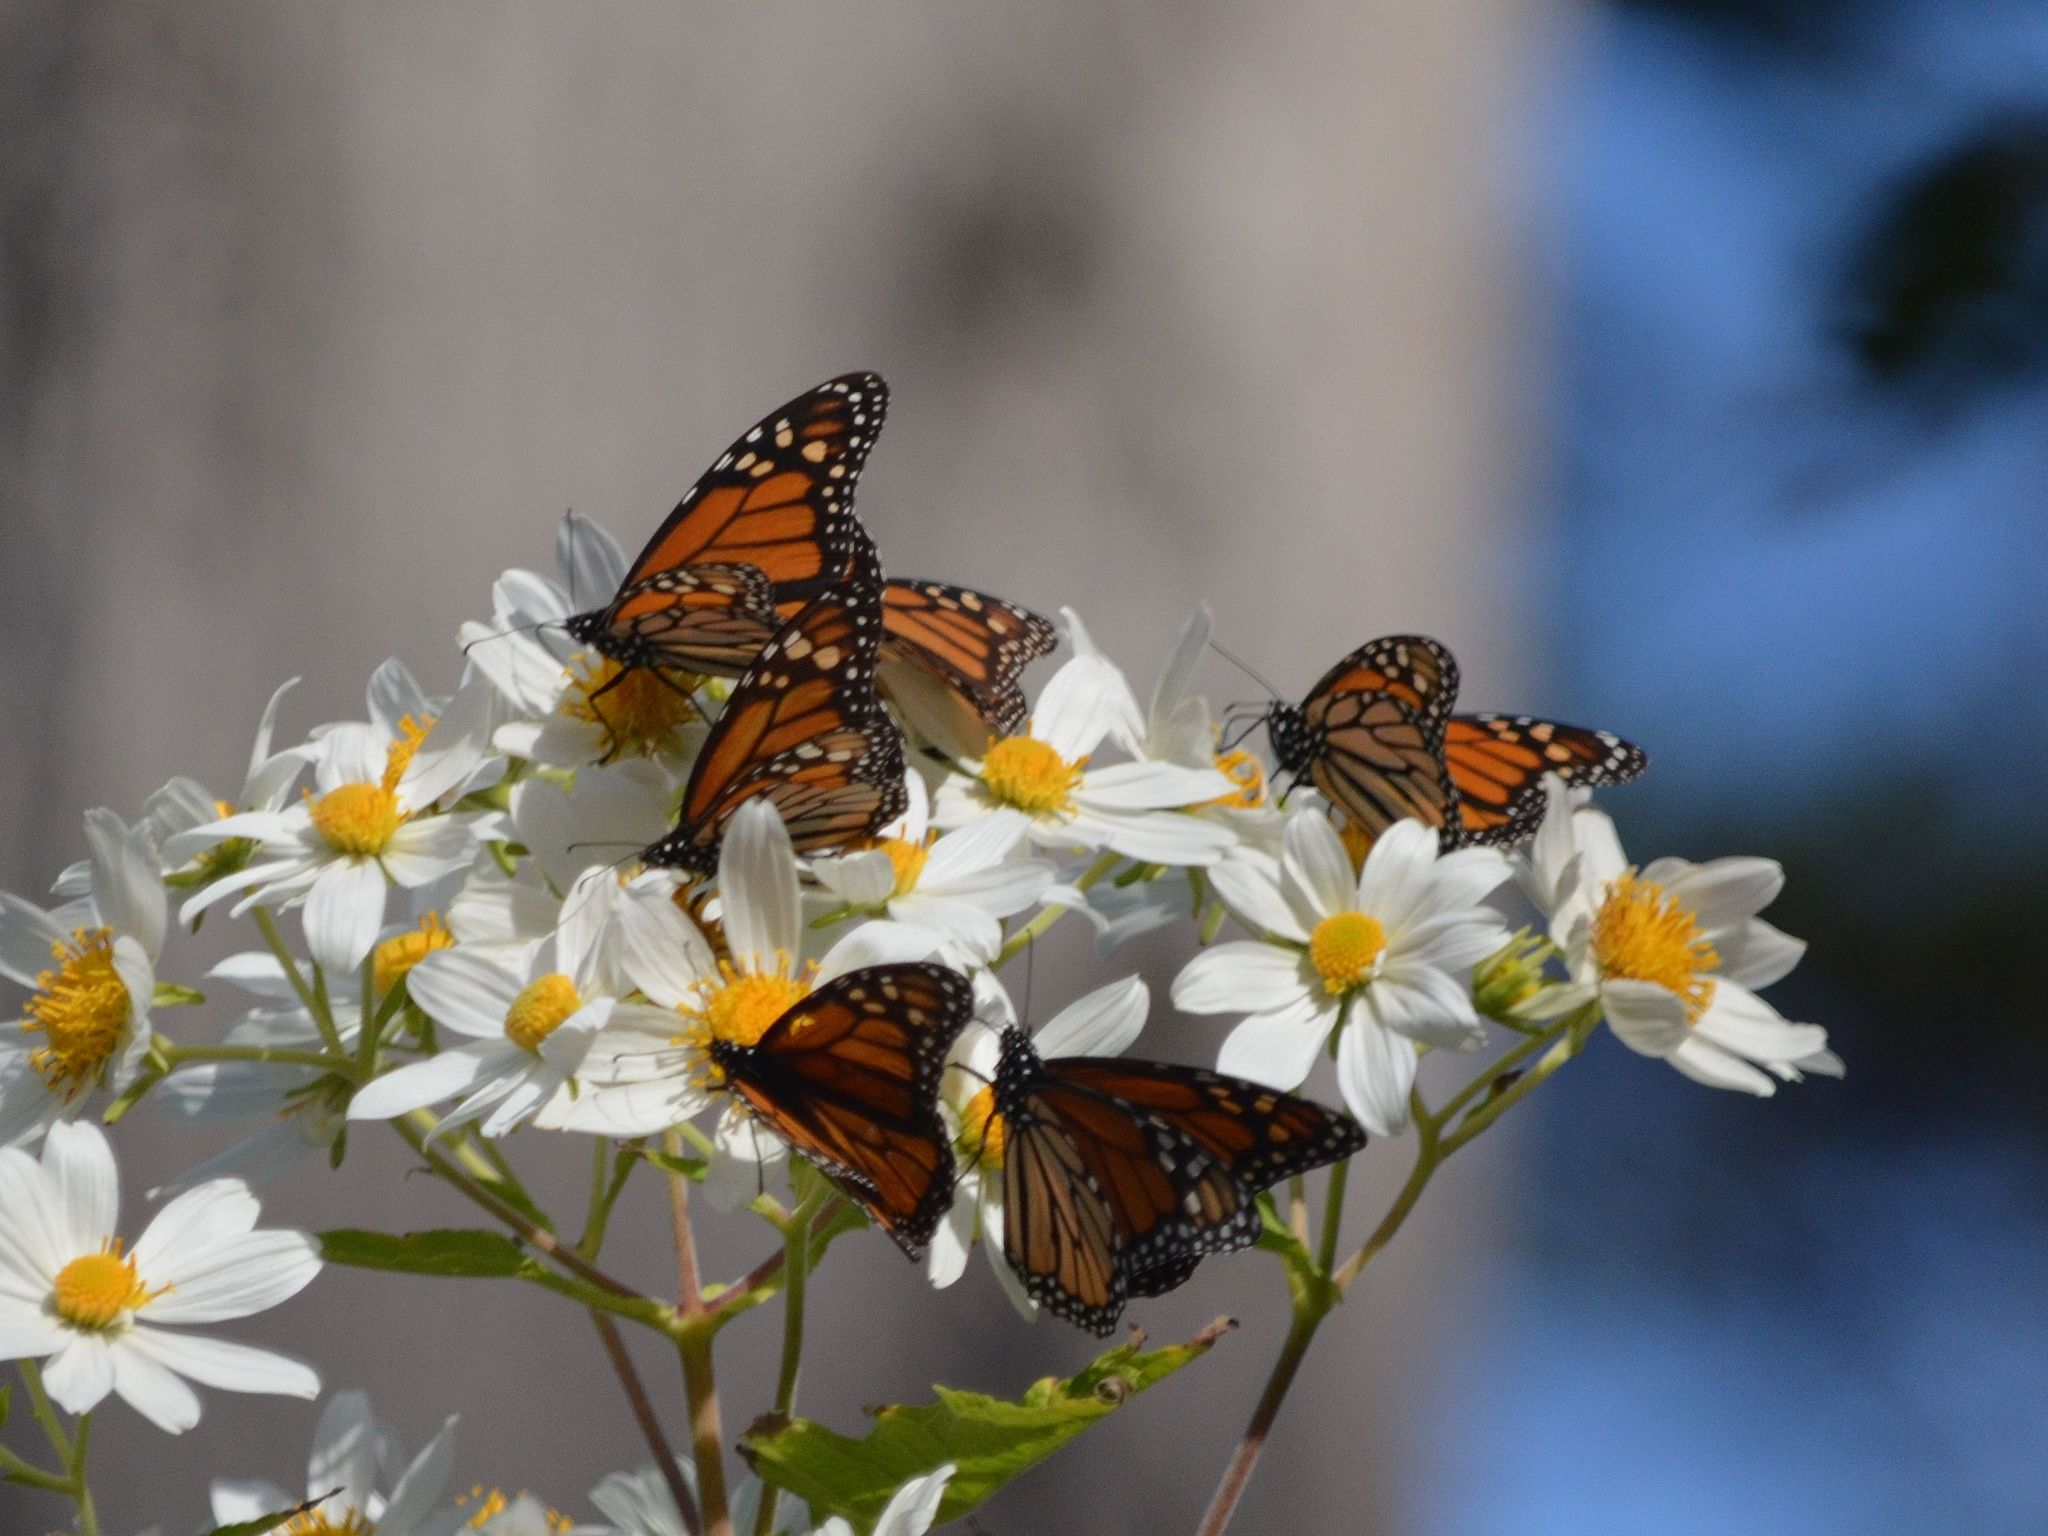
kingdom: Animalia
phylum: Arthropoda
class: Insecta
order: Lepidoptera
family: Nymphalidae
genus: Danaus
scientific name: Danaus plexippus
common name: Monarch
